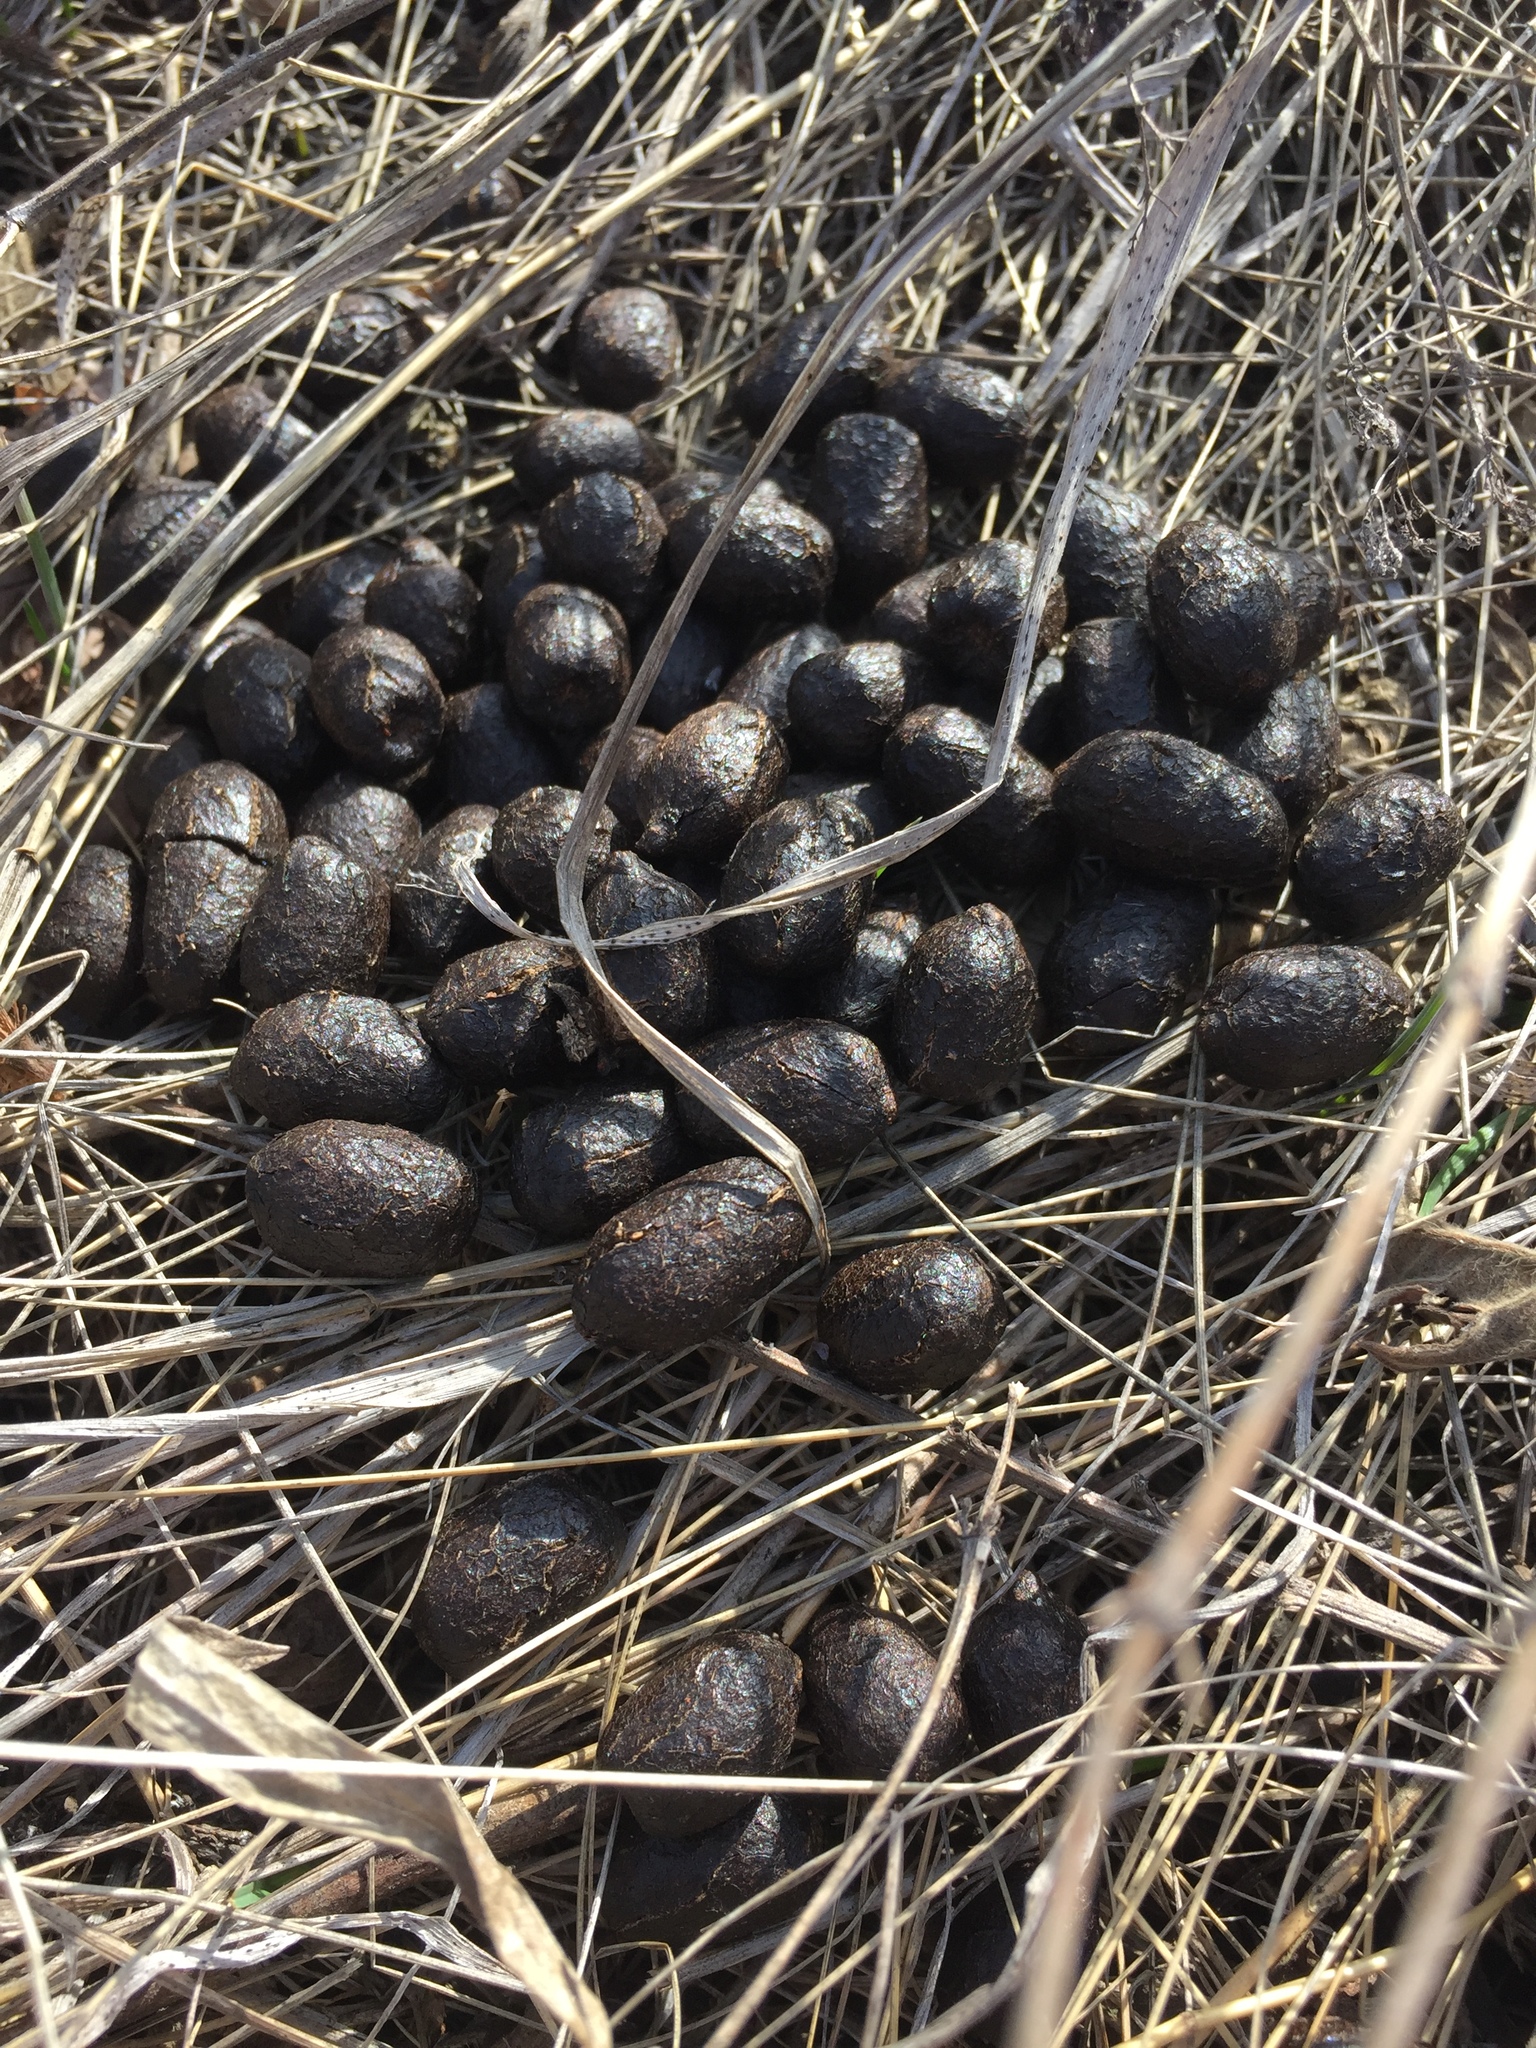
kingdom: Animalia
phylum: Chordata
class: Mammalia
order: Artiodactyla
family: Cervidae
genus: Capreolus
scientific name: Capreolus capreolus
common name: Western roe deer
